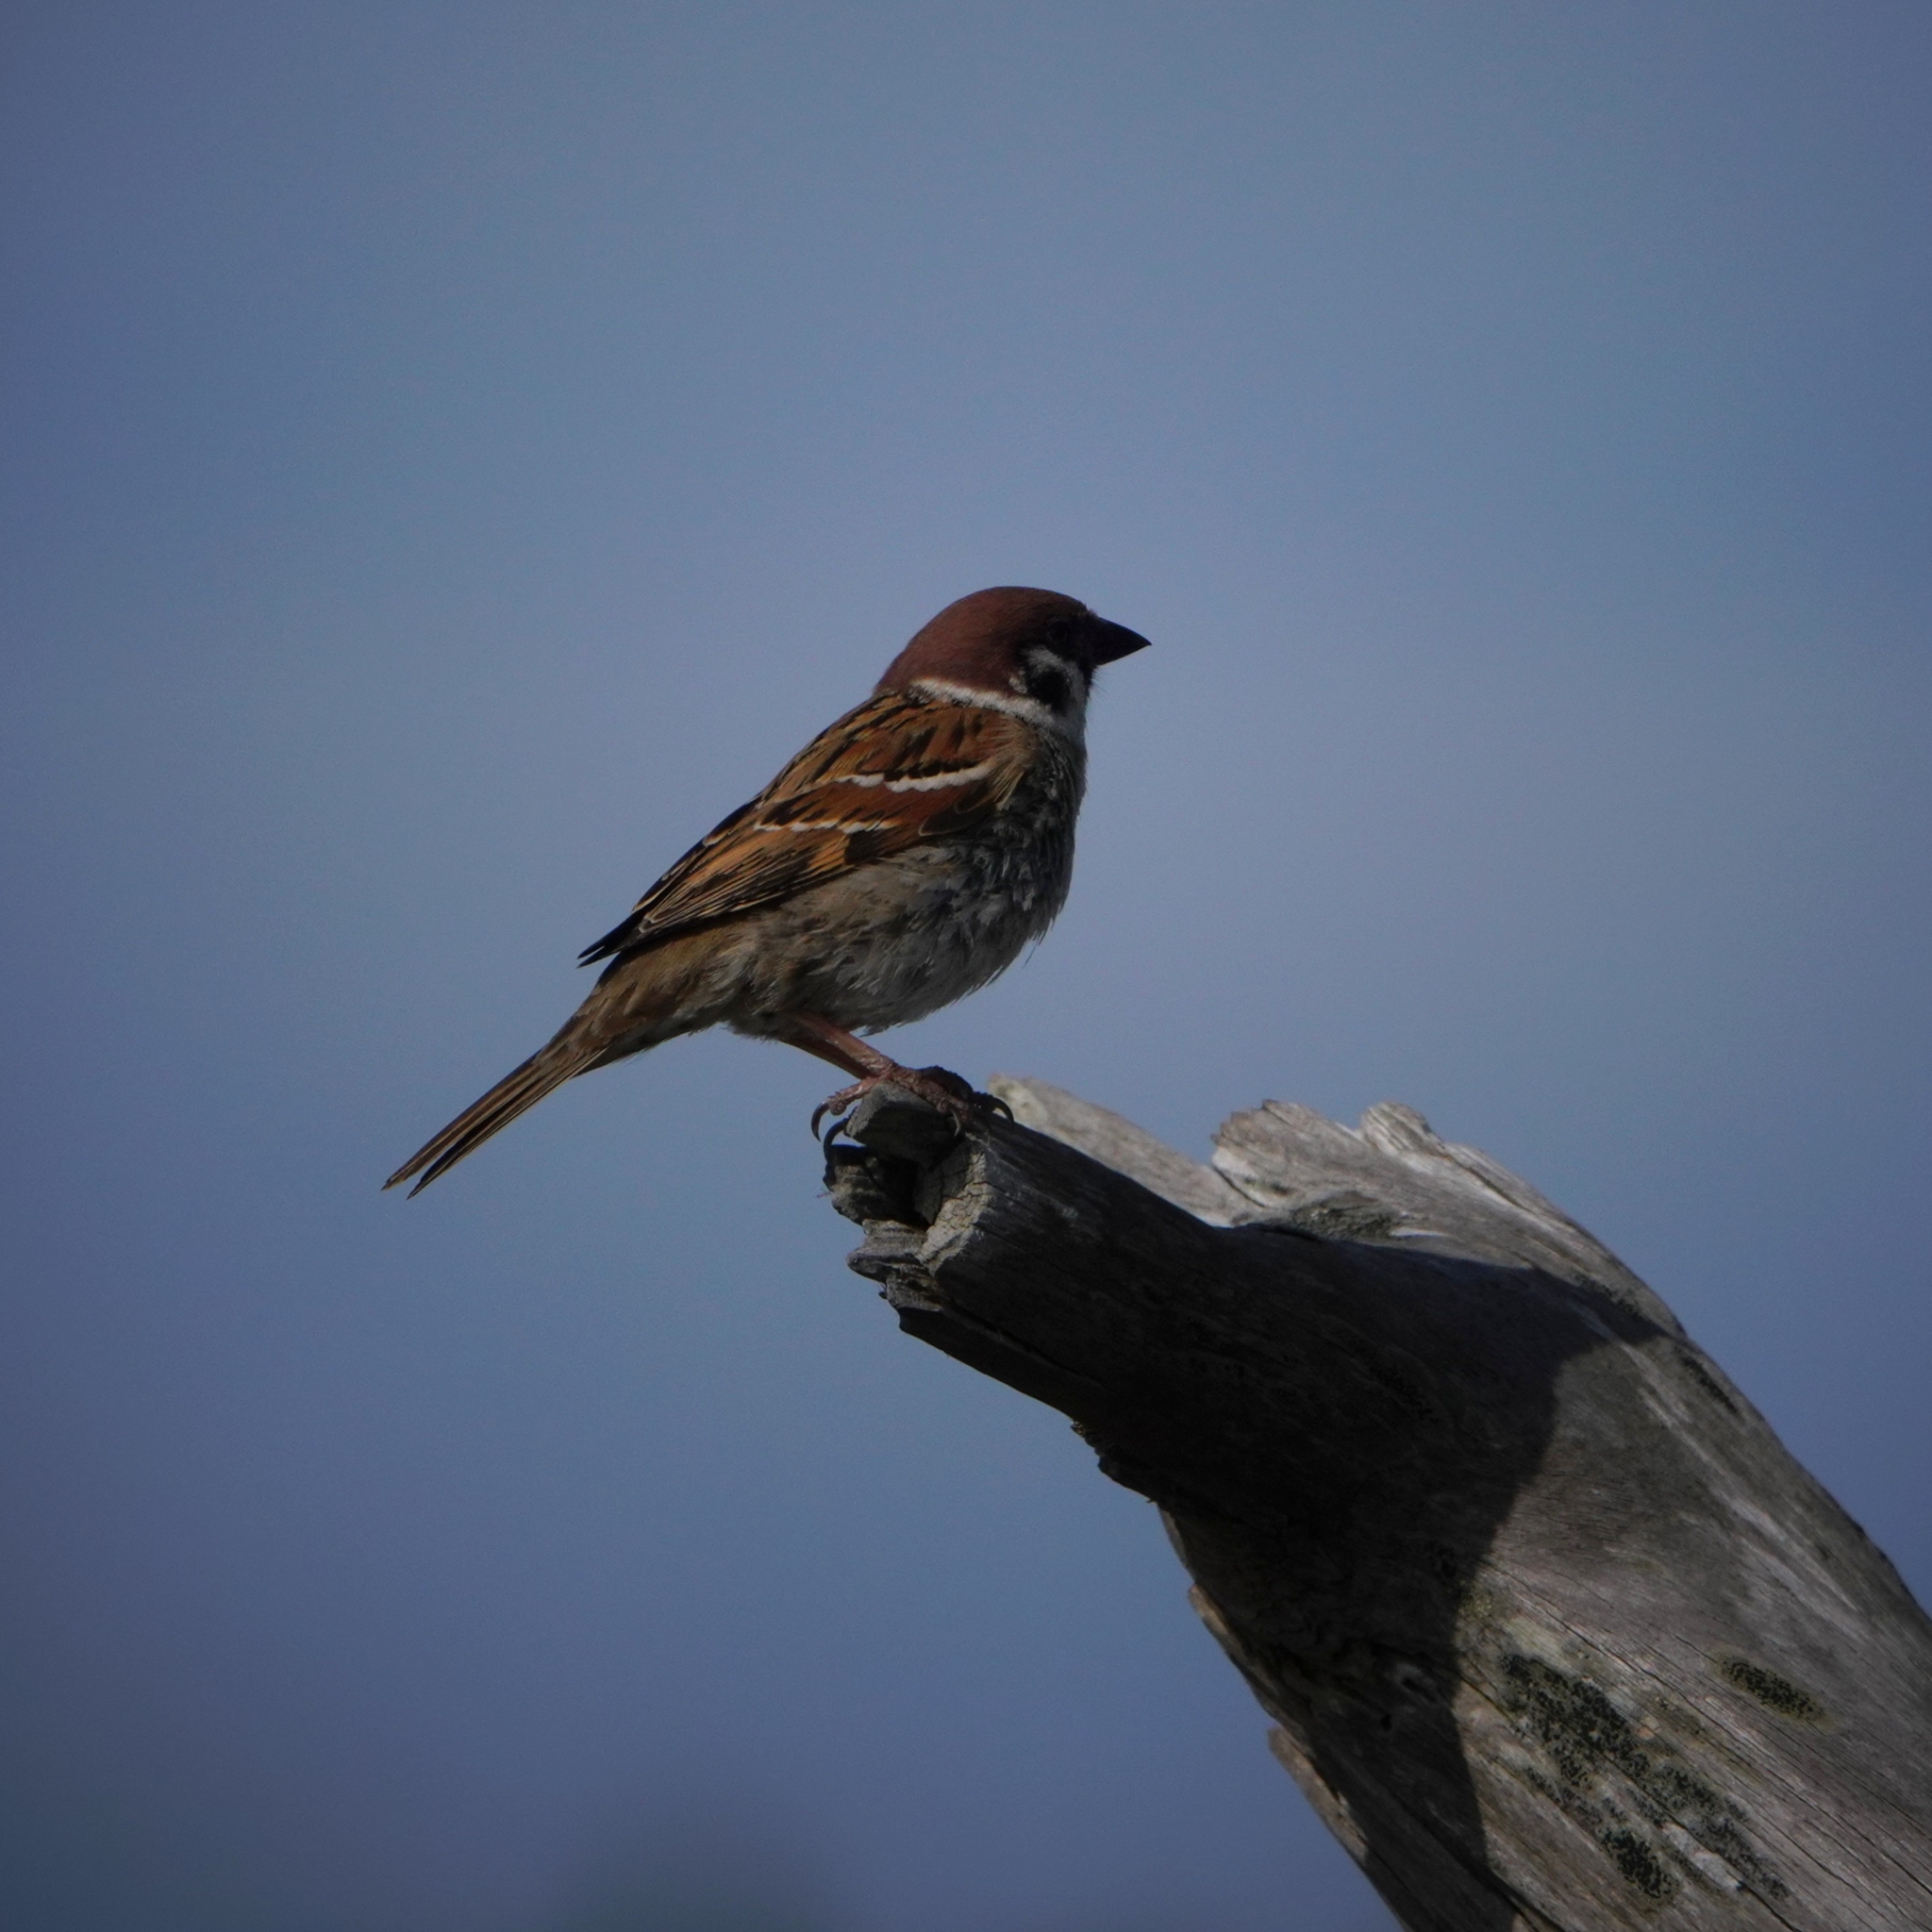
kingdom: Animalia
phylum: Chordata
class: Aves
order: Passeriformes
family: Passeridae
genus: Passer
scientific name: Passer montanus
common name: Eurasian tree sparrow
